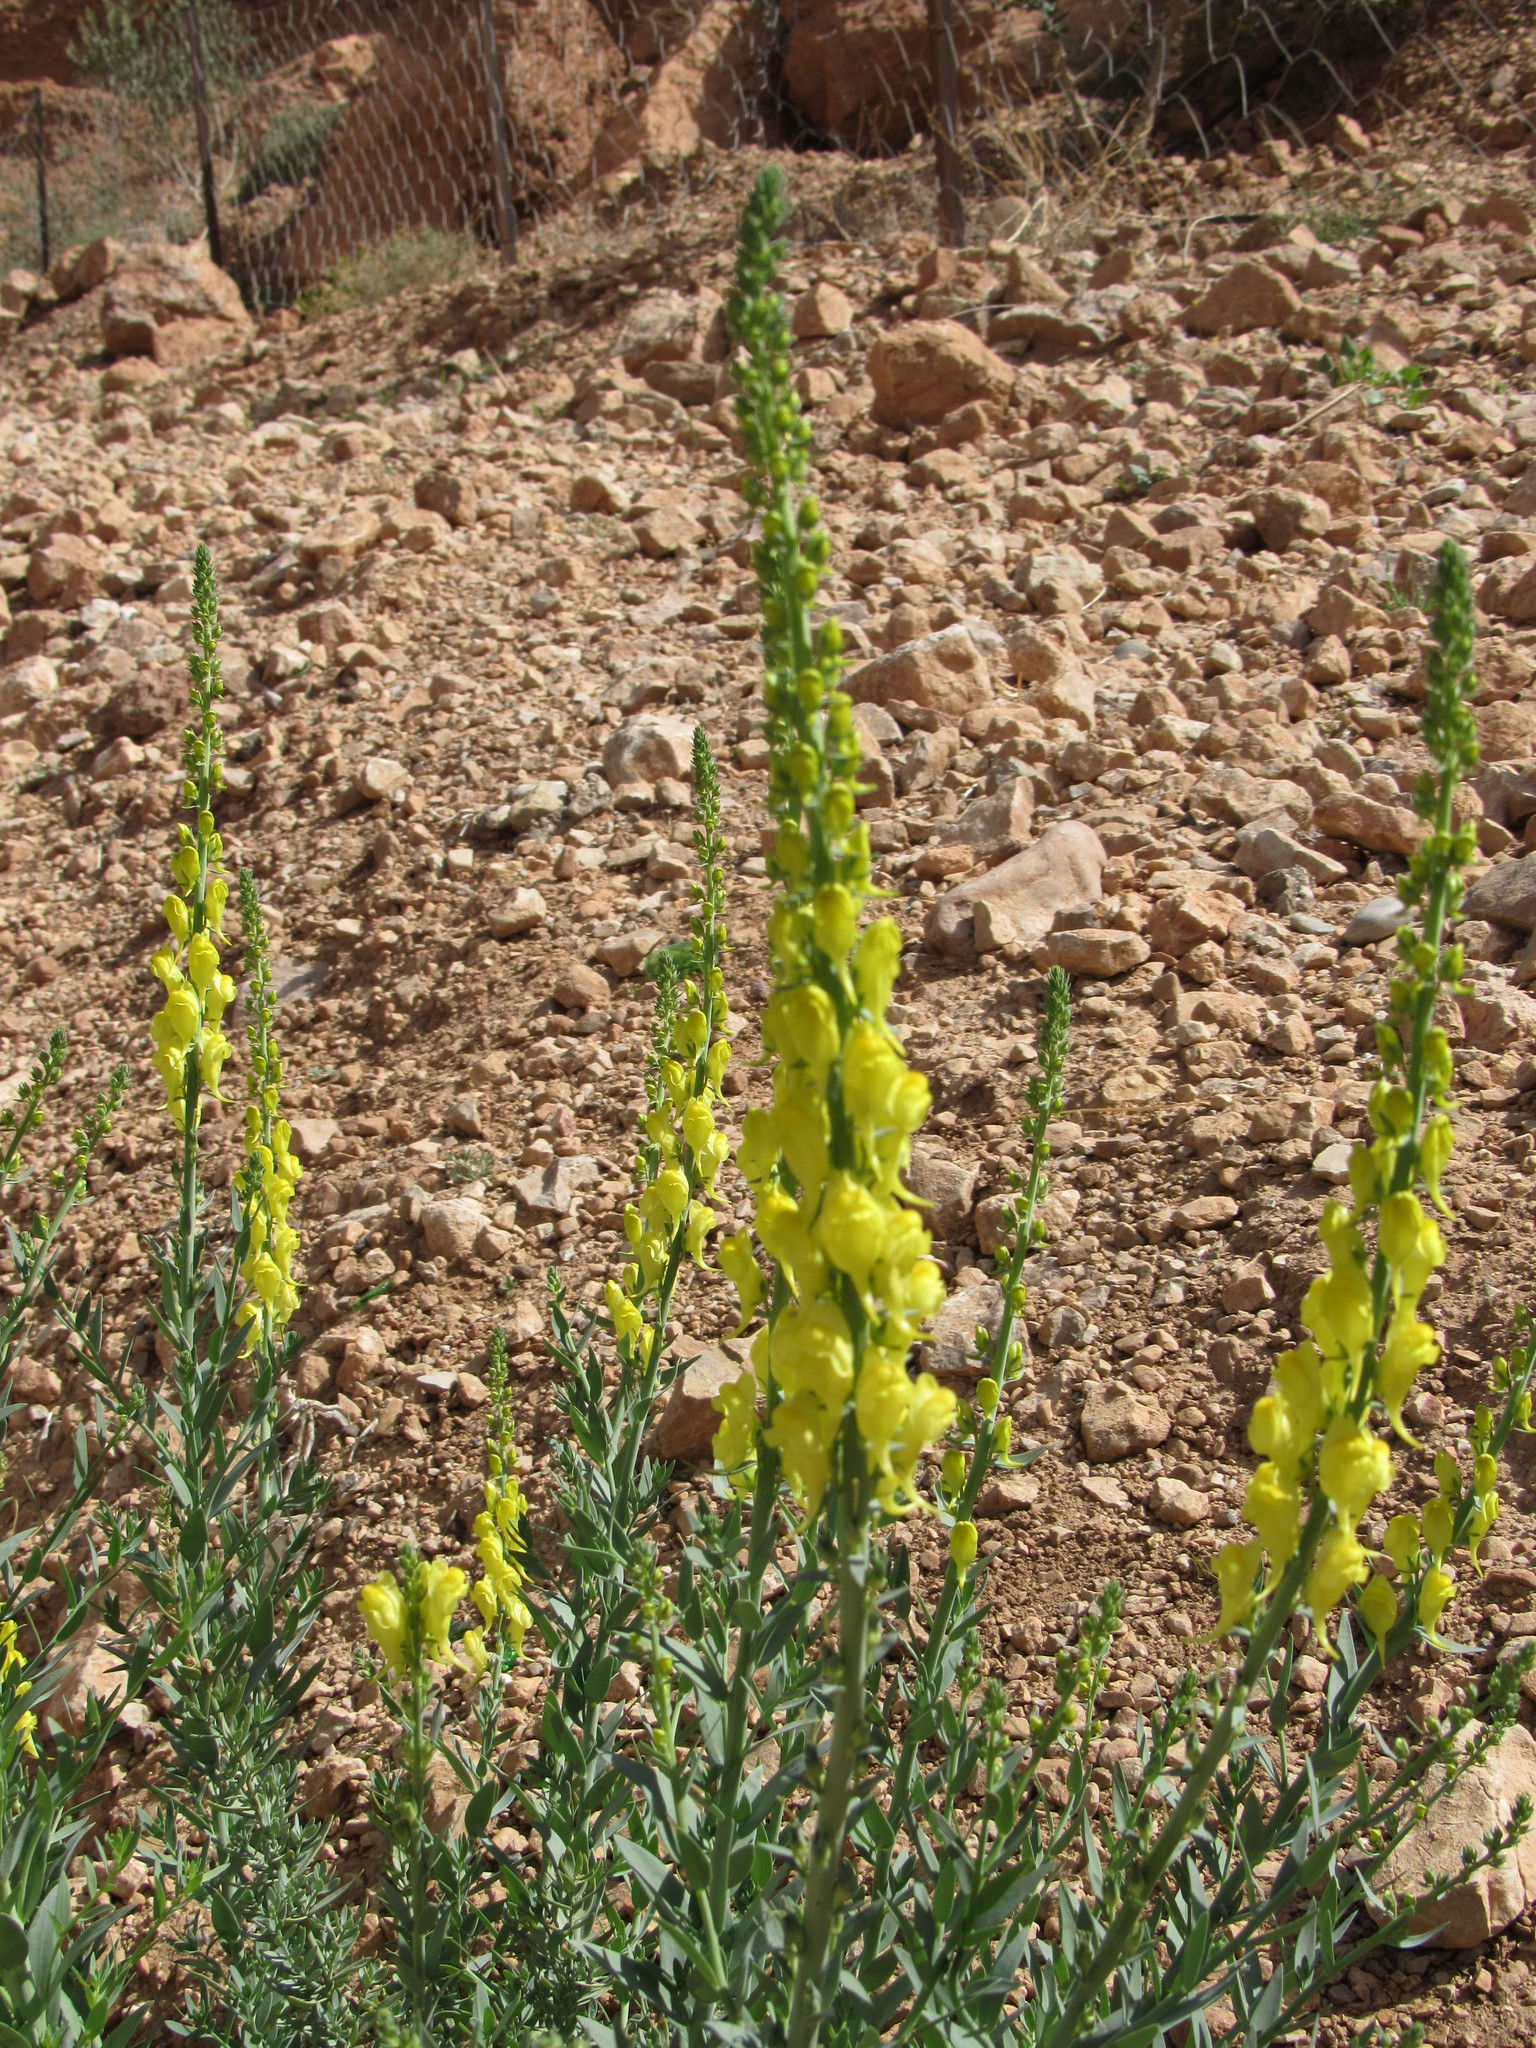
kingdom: Plantae
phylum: Tracheophyta
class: Magnoliopsida
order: Lamiales
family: Plantaginaceae
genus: Linaria
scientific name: Linaria ventricosa
